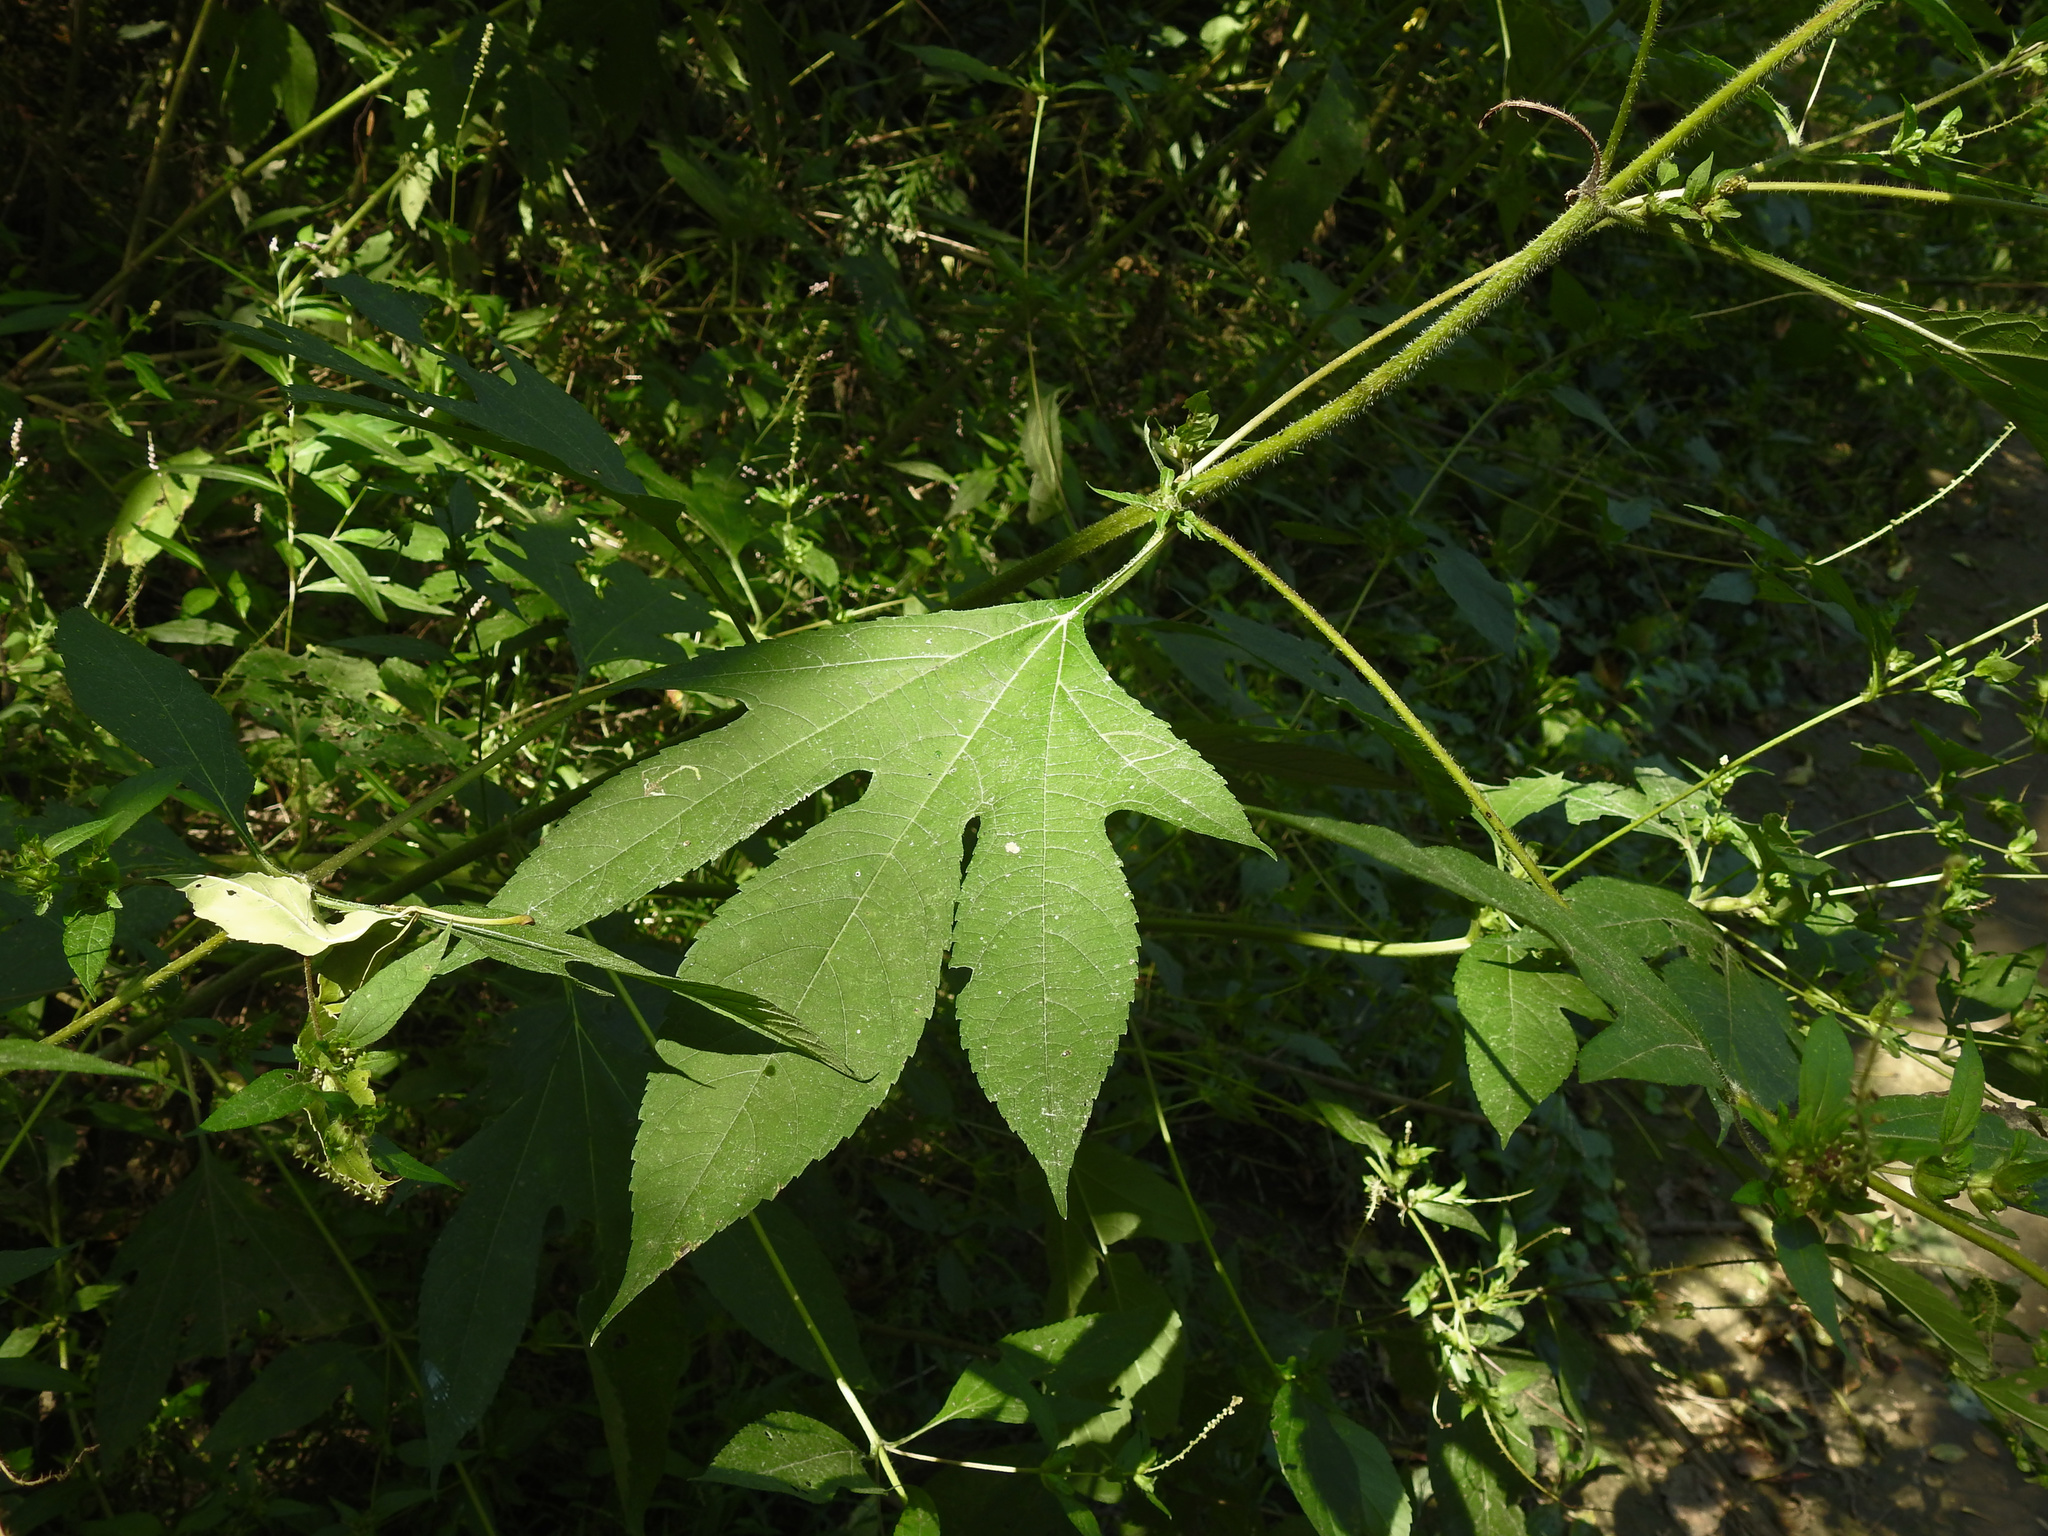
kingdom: Plantae
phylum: Tracheophyta
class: Magnoliopsida
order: Asterales
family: Asteraceae
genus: Ambrosia
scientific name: Ambrosia trifida
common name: Giant ragweed
